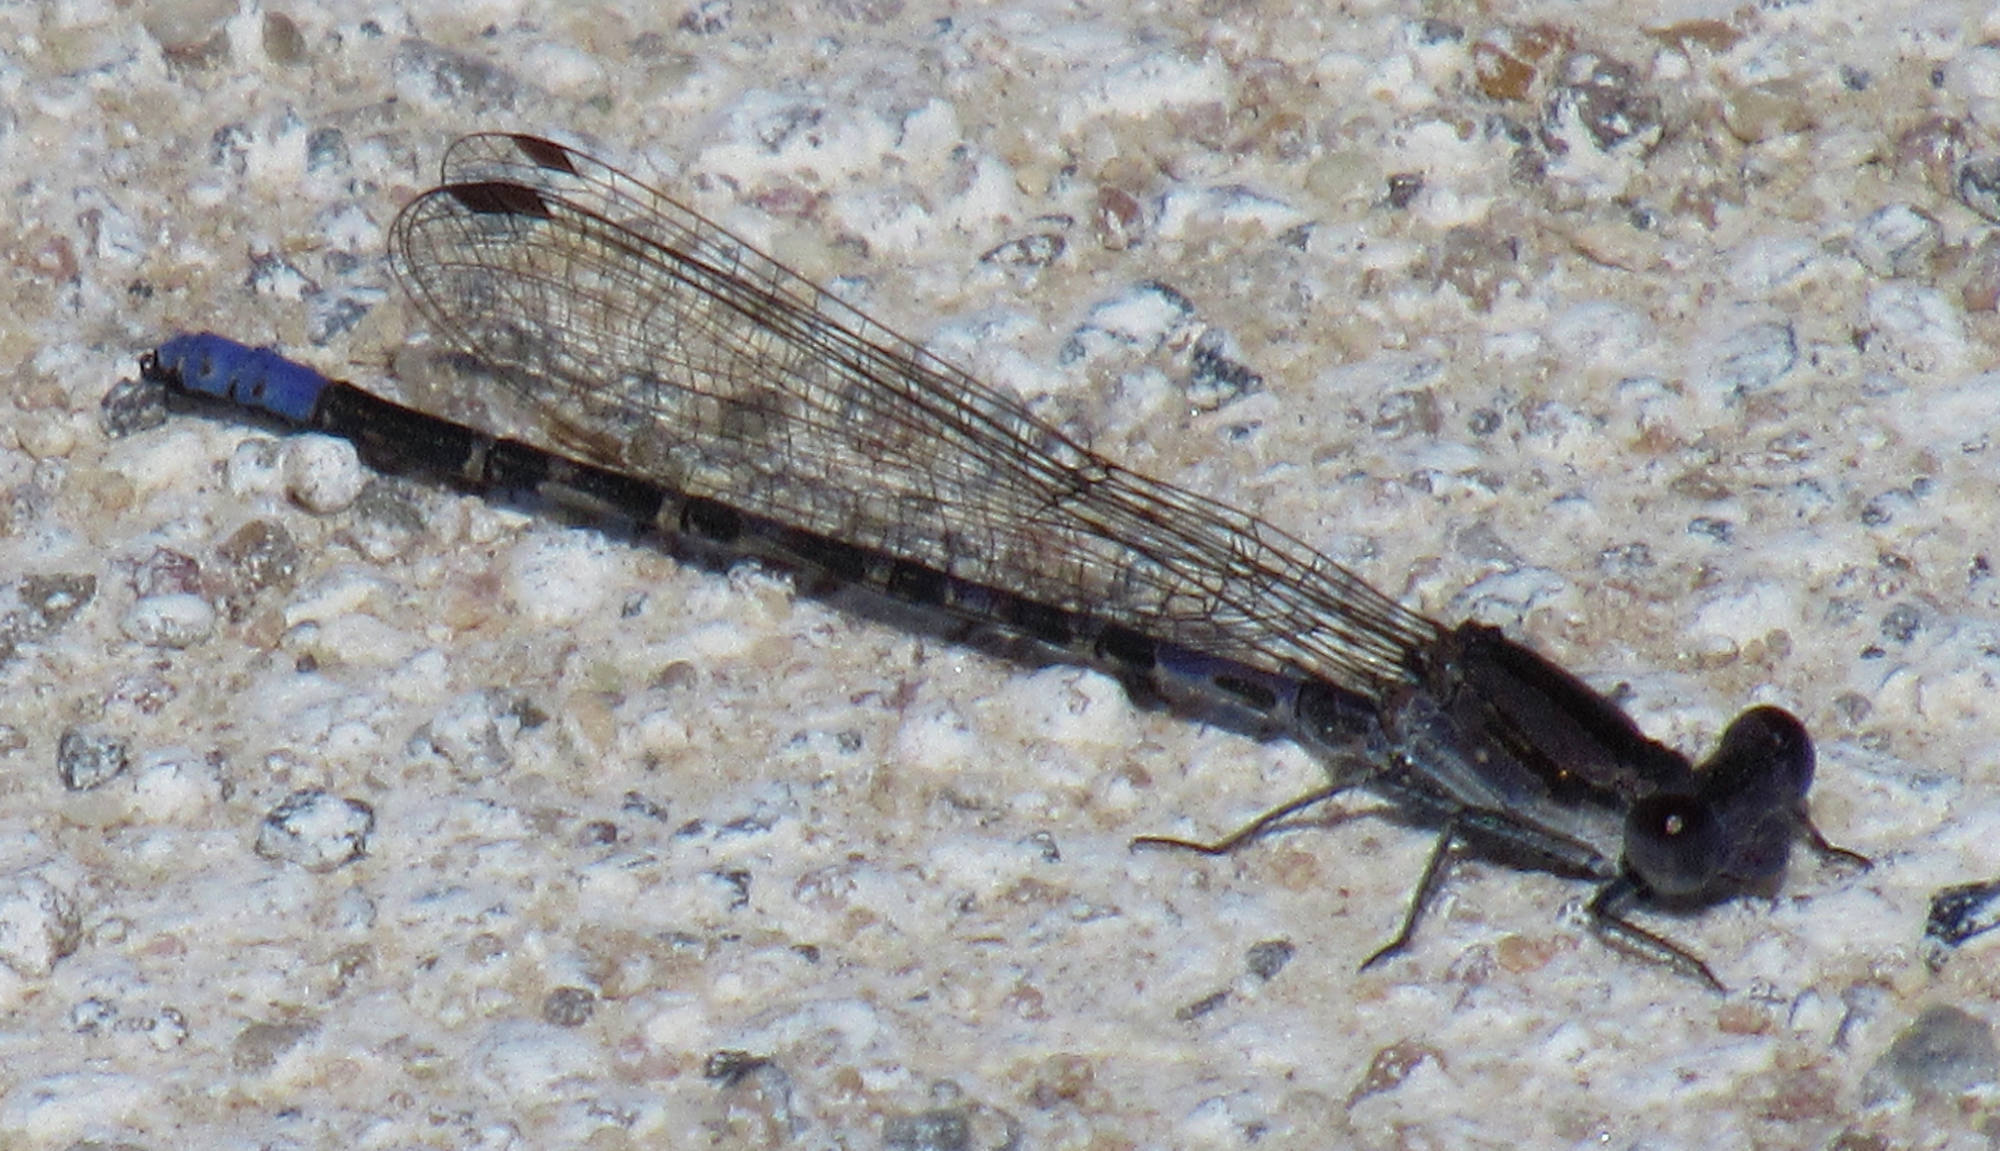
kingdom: Animalia
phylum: Arthropoda
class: Insecta
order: Odonata
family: Coenagrionidae
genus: Argia
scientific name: Argia immunda
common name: Kiowa dancer
